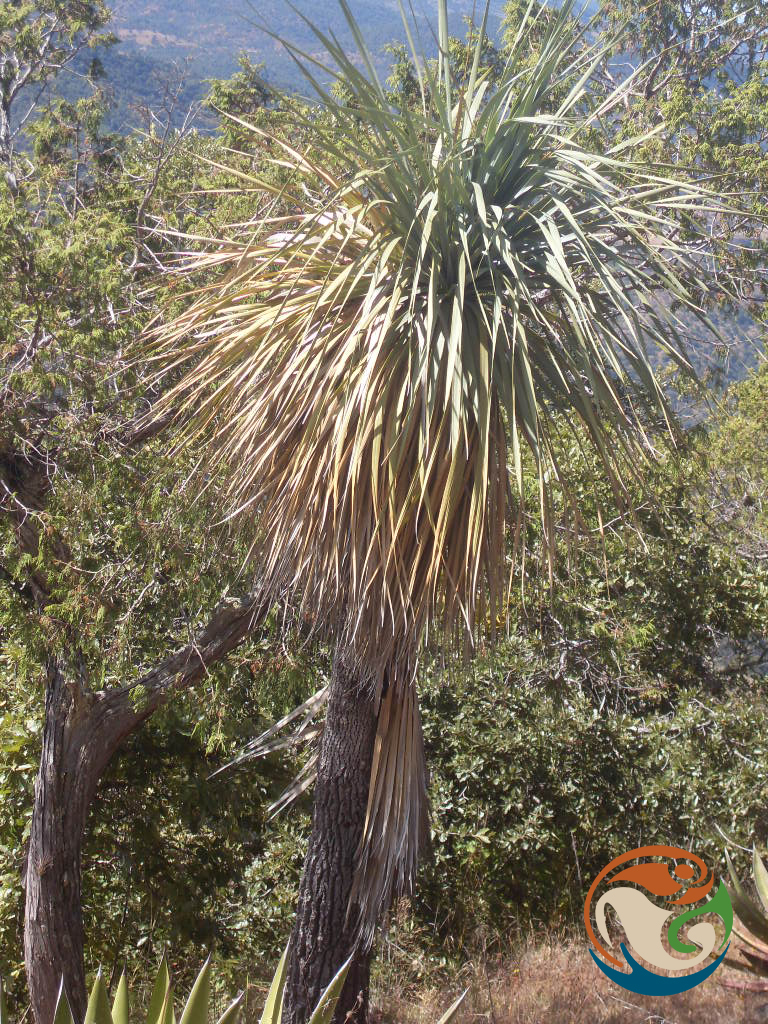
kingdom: Plantae
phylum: Tracheophyta
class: Liliopsida
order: Asparagales
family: Asparagaceae
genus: Nolina
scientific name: Nolina parviflora
